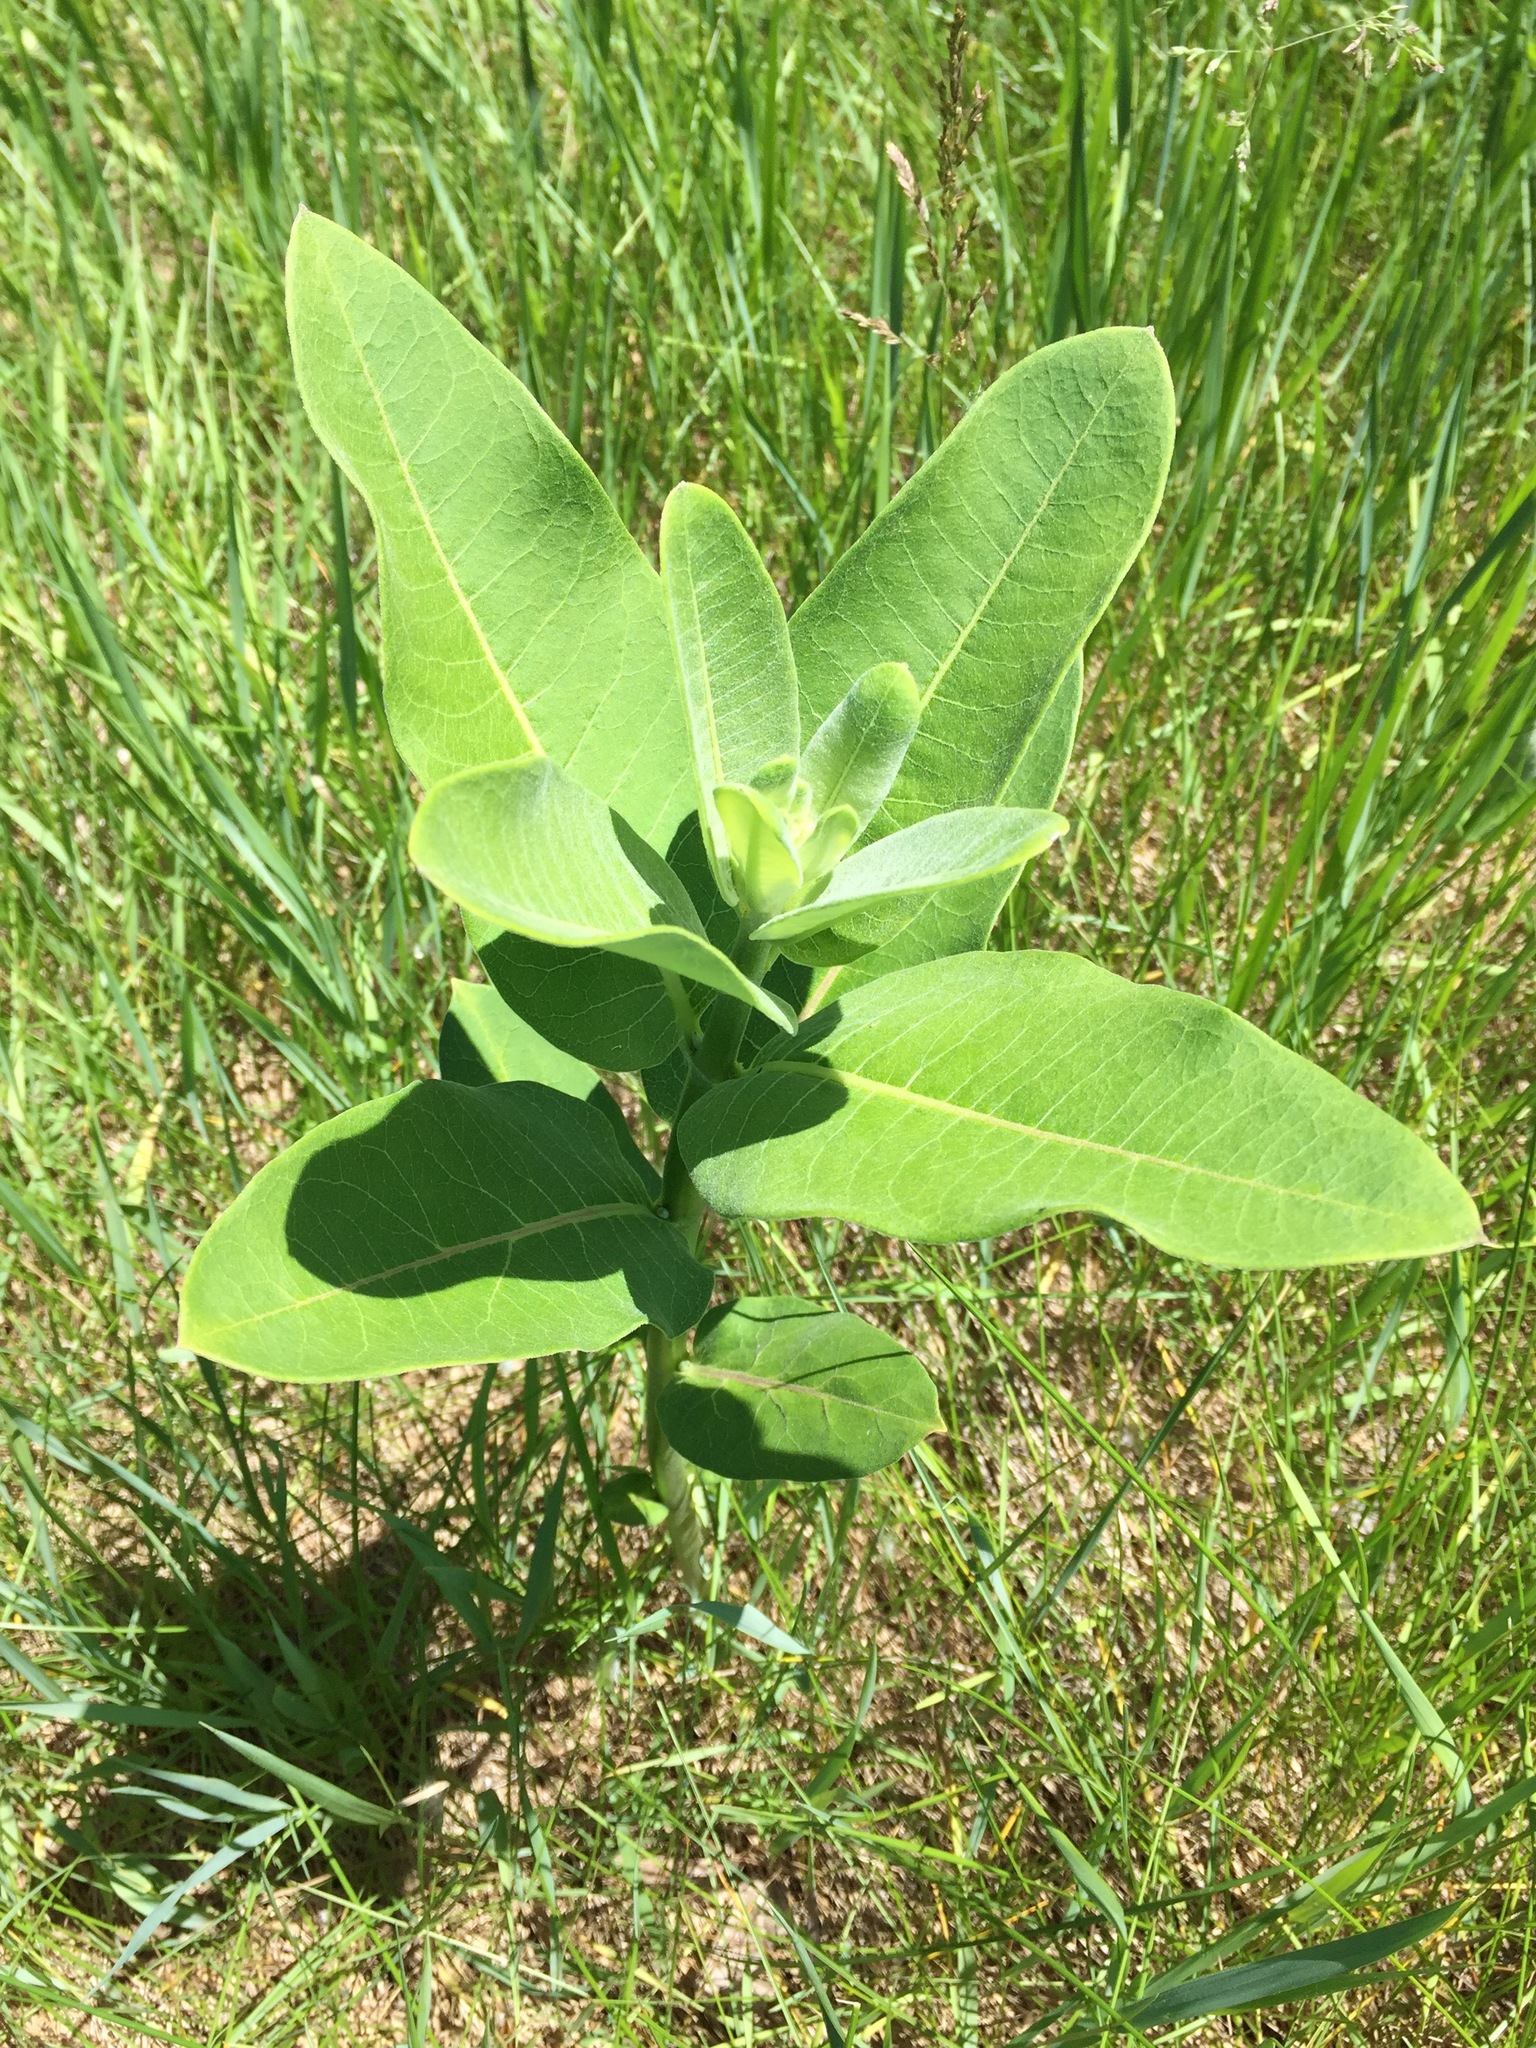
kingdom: Plantae
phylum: Tracheophyta
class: Magnoliopsida
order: Gentianales
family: Apocynaceae
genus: Asclepias
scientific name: Asclepias syriaca
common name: Common milkweed
